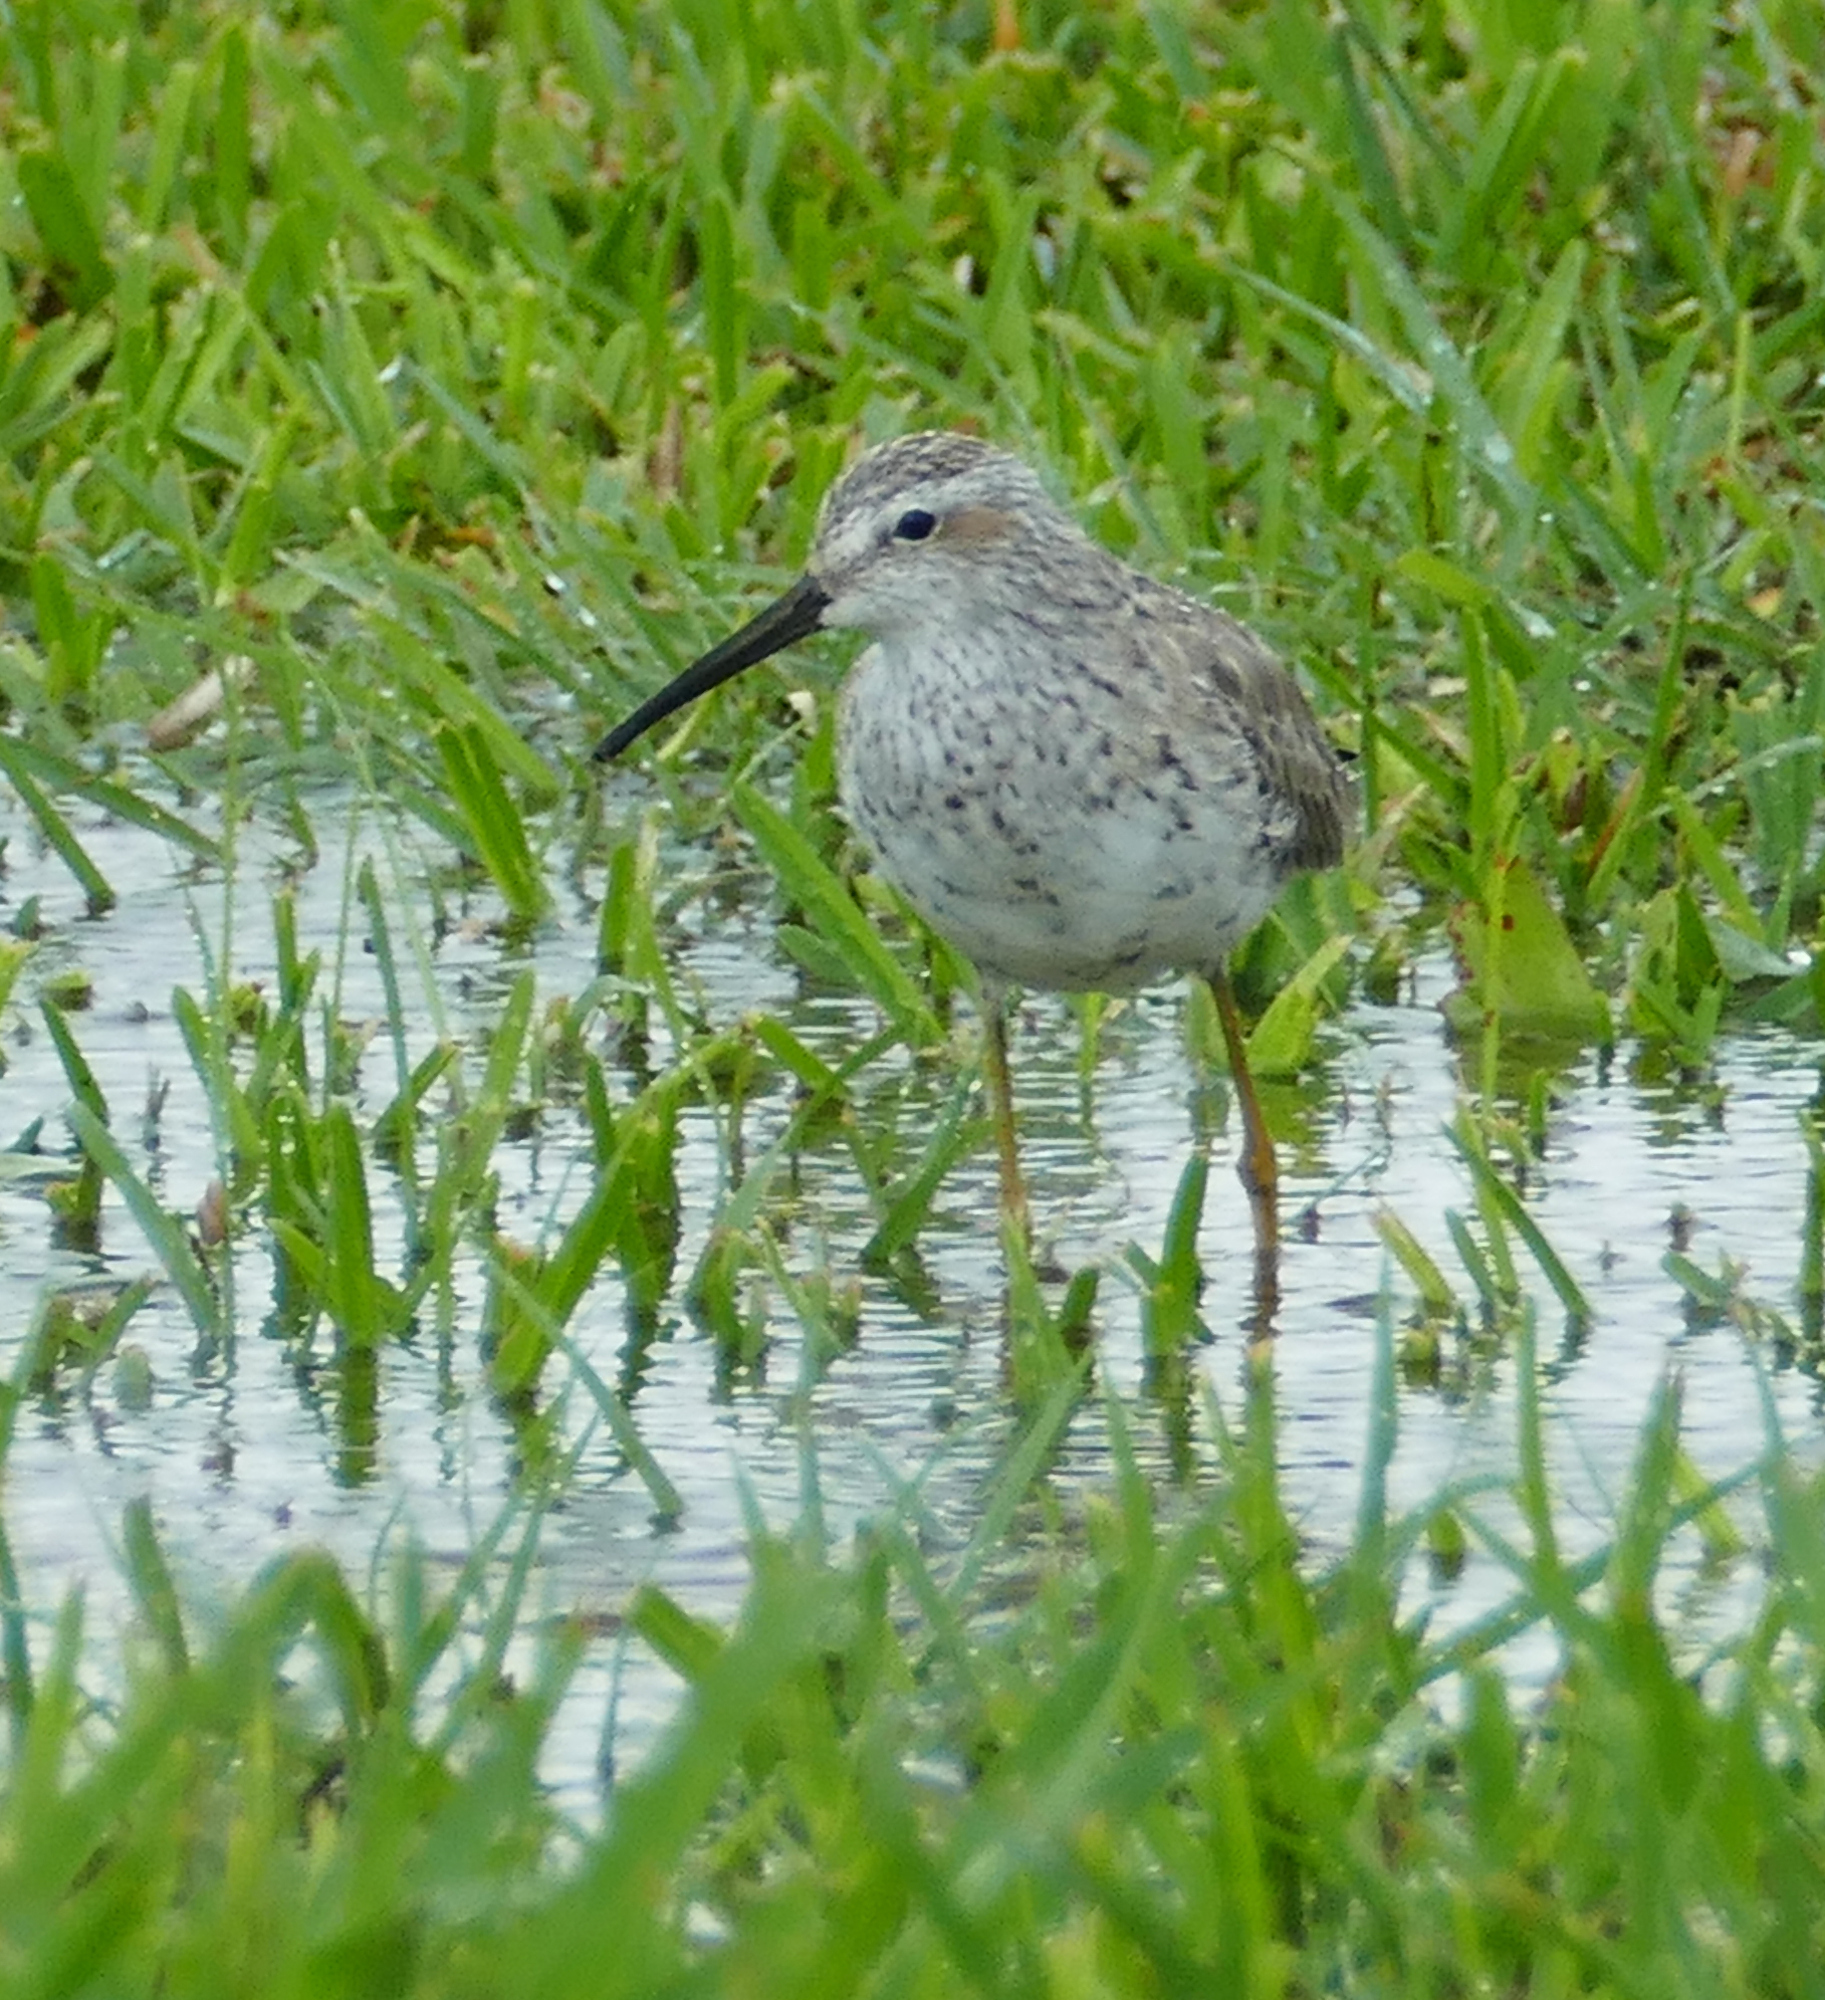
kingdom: Animalia
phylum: Chordata
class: Aves
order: Charadriiformes
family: Scolopacidae
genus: Calidris
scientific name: Calidris himantopus
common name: Stilt sandpiper
